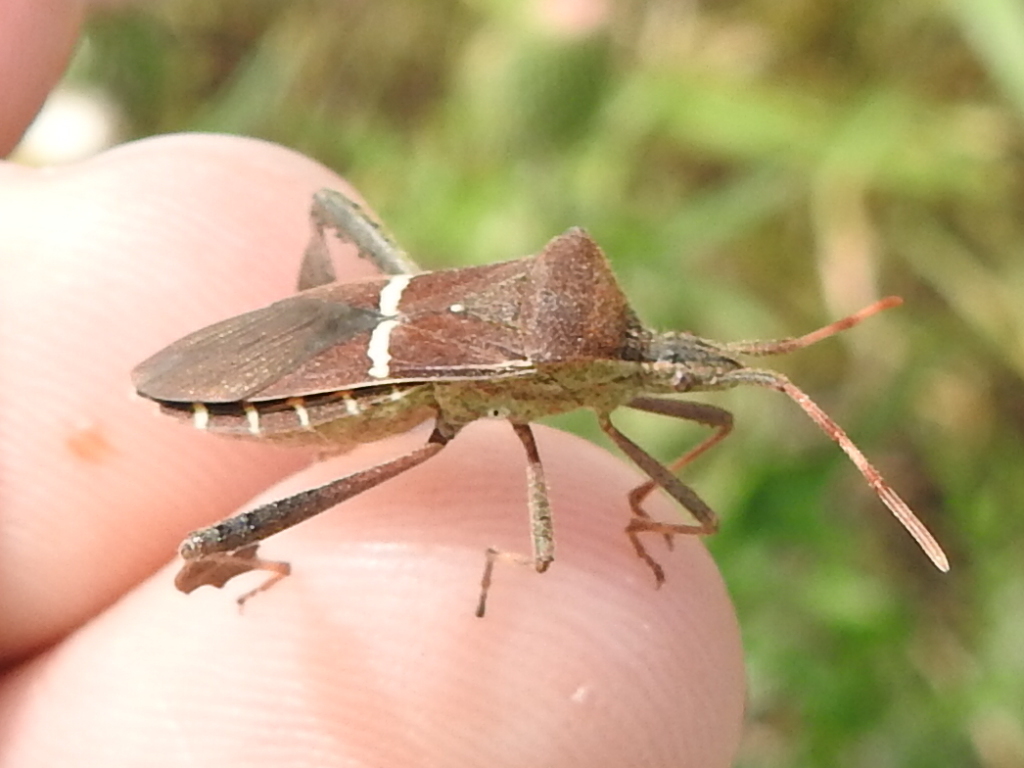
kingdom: Animalia
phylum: Arthropoda
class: Insecta
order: Hemiptera
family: Coreidae
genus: Leptoglossus
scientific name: Leptoglossus phyllopus
